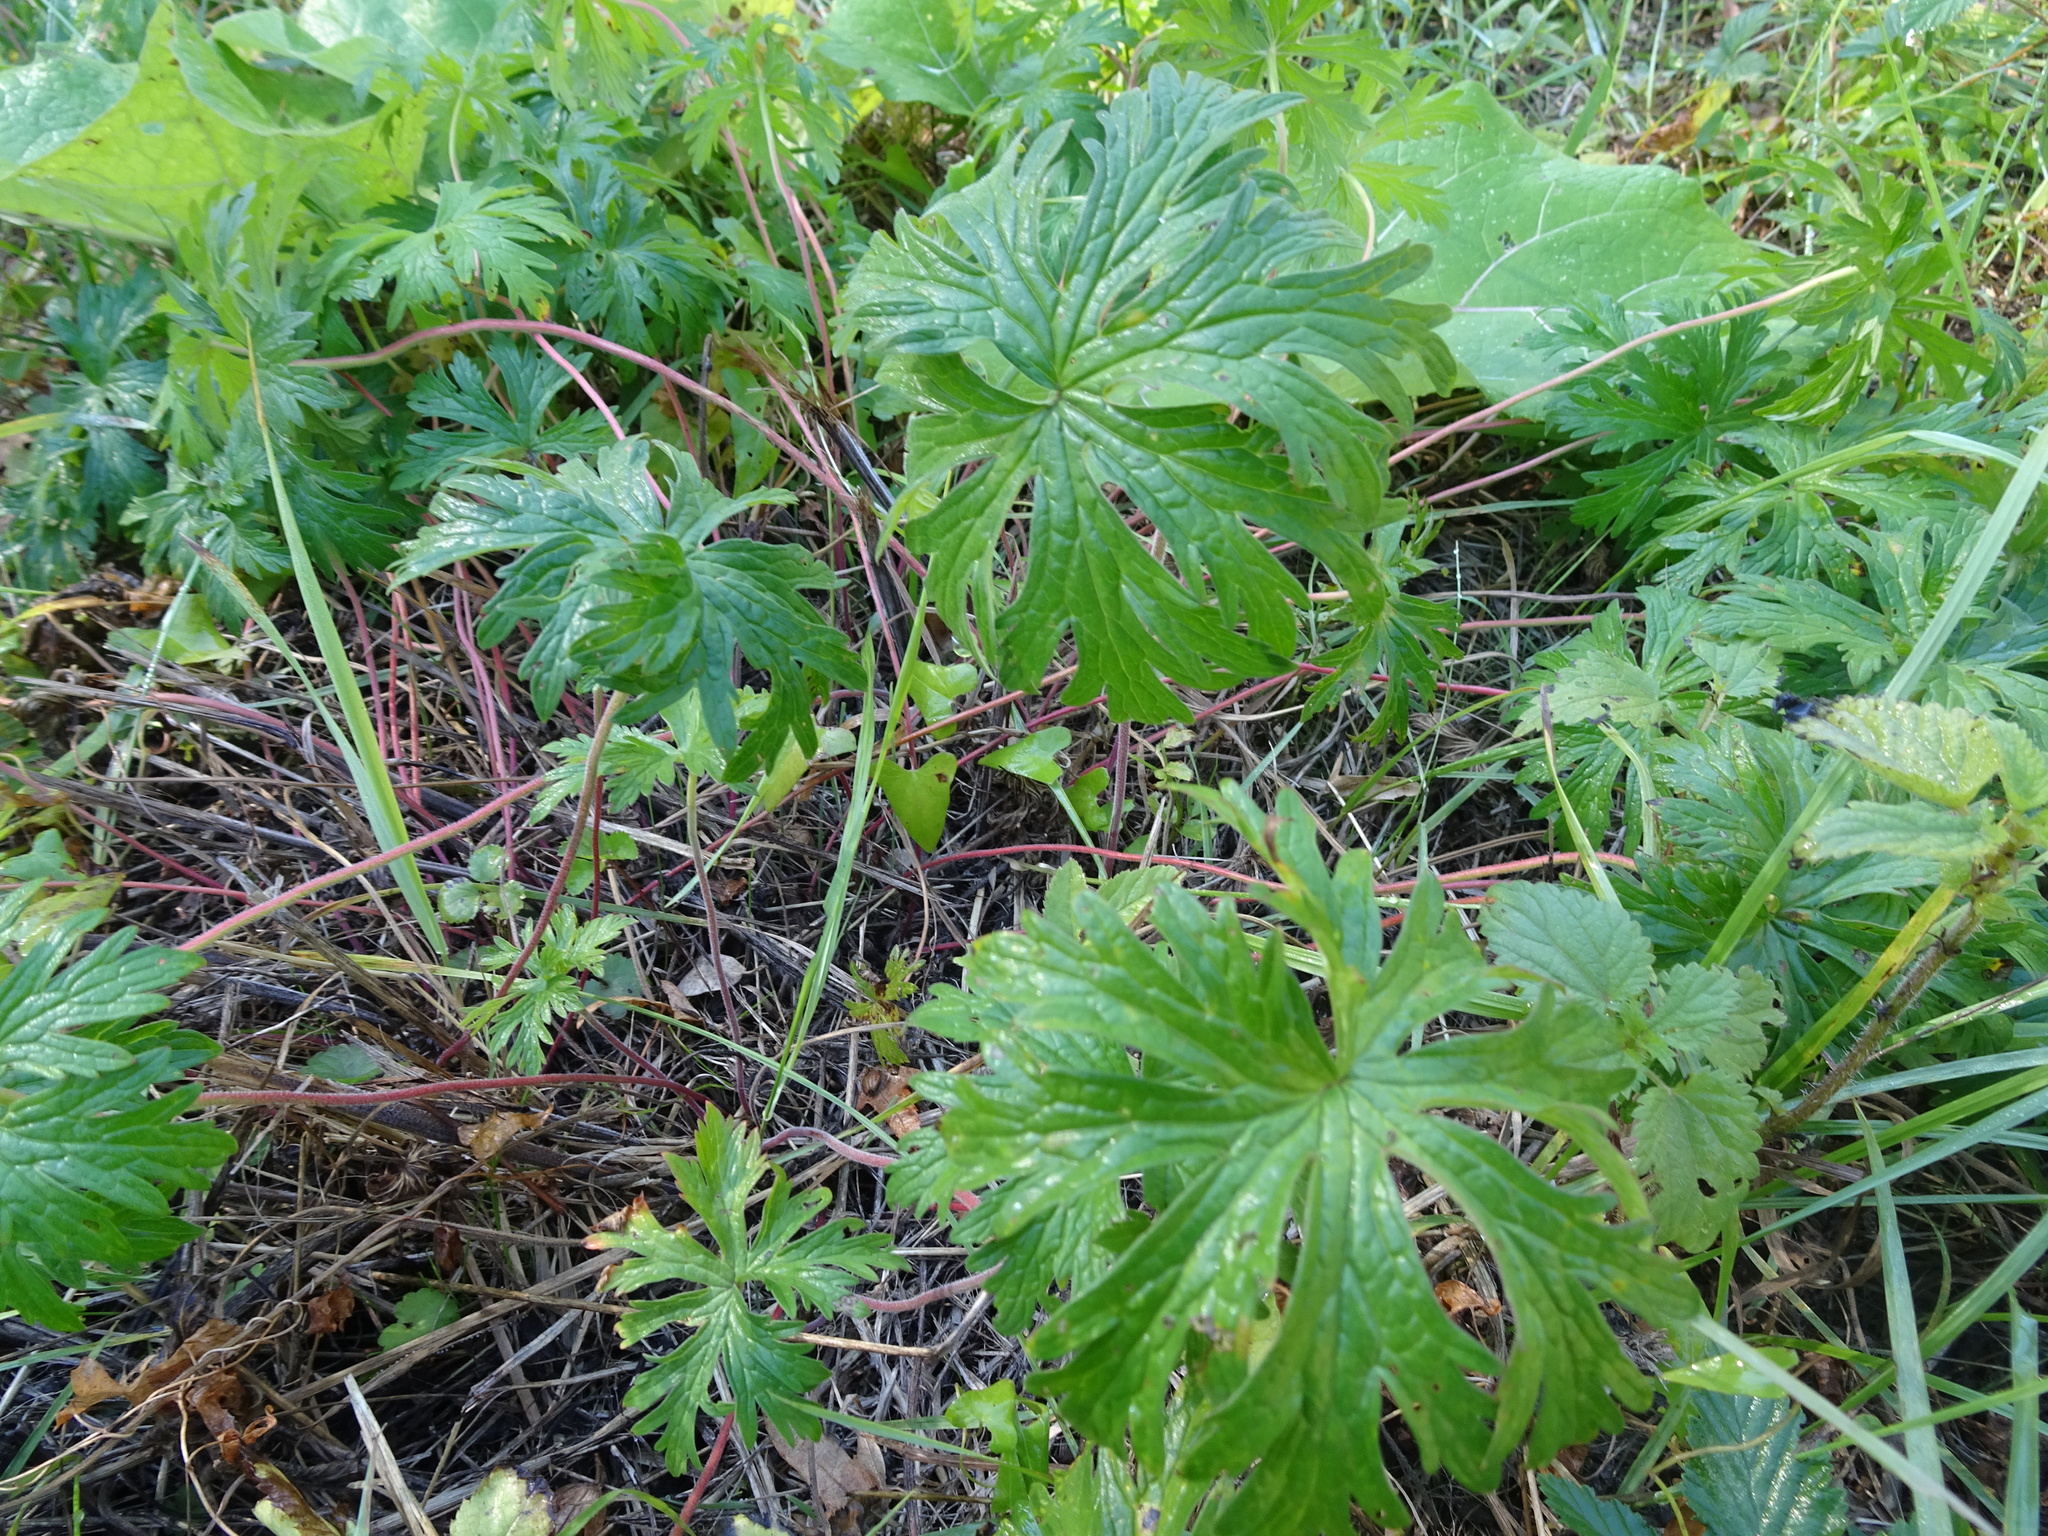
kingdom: Plantae
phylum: Tracheophyta
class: Magnoliopsida
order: Geraniales
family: Geraniaceae
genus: Geranium
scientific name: Geranium pratense
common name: Meadow crane's-bill
